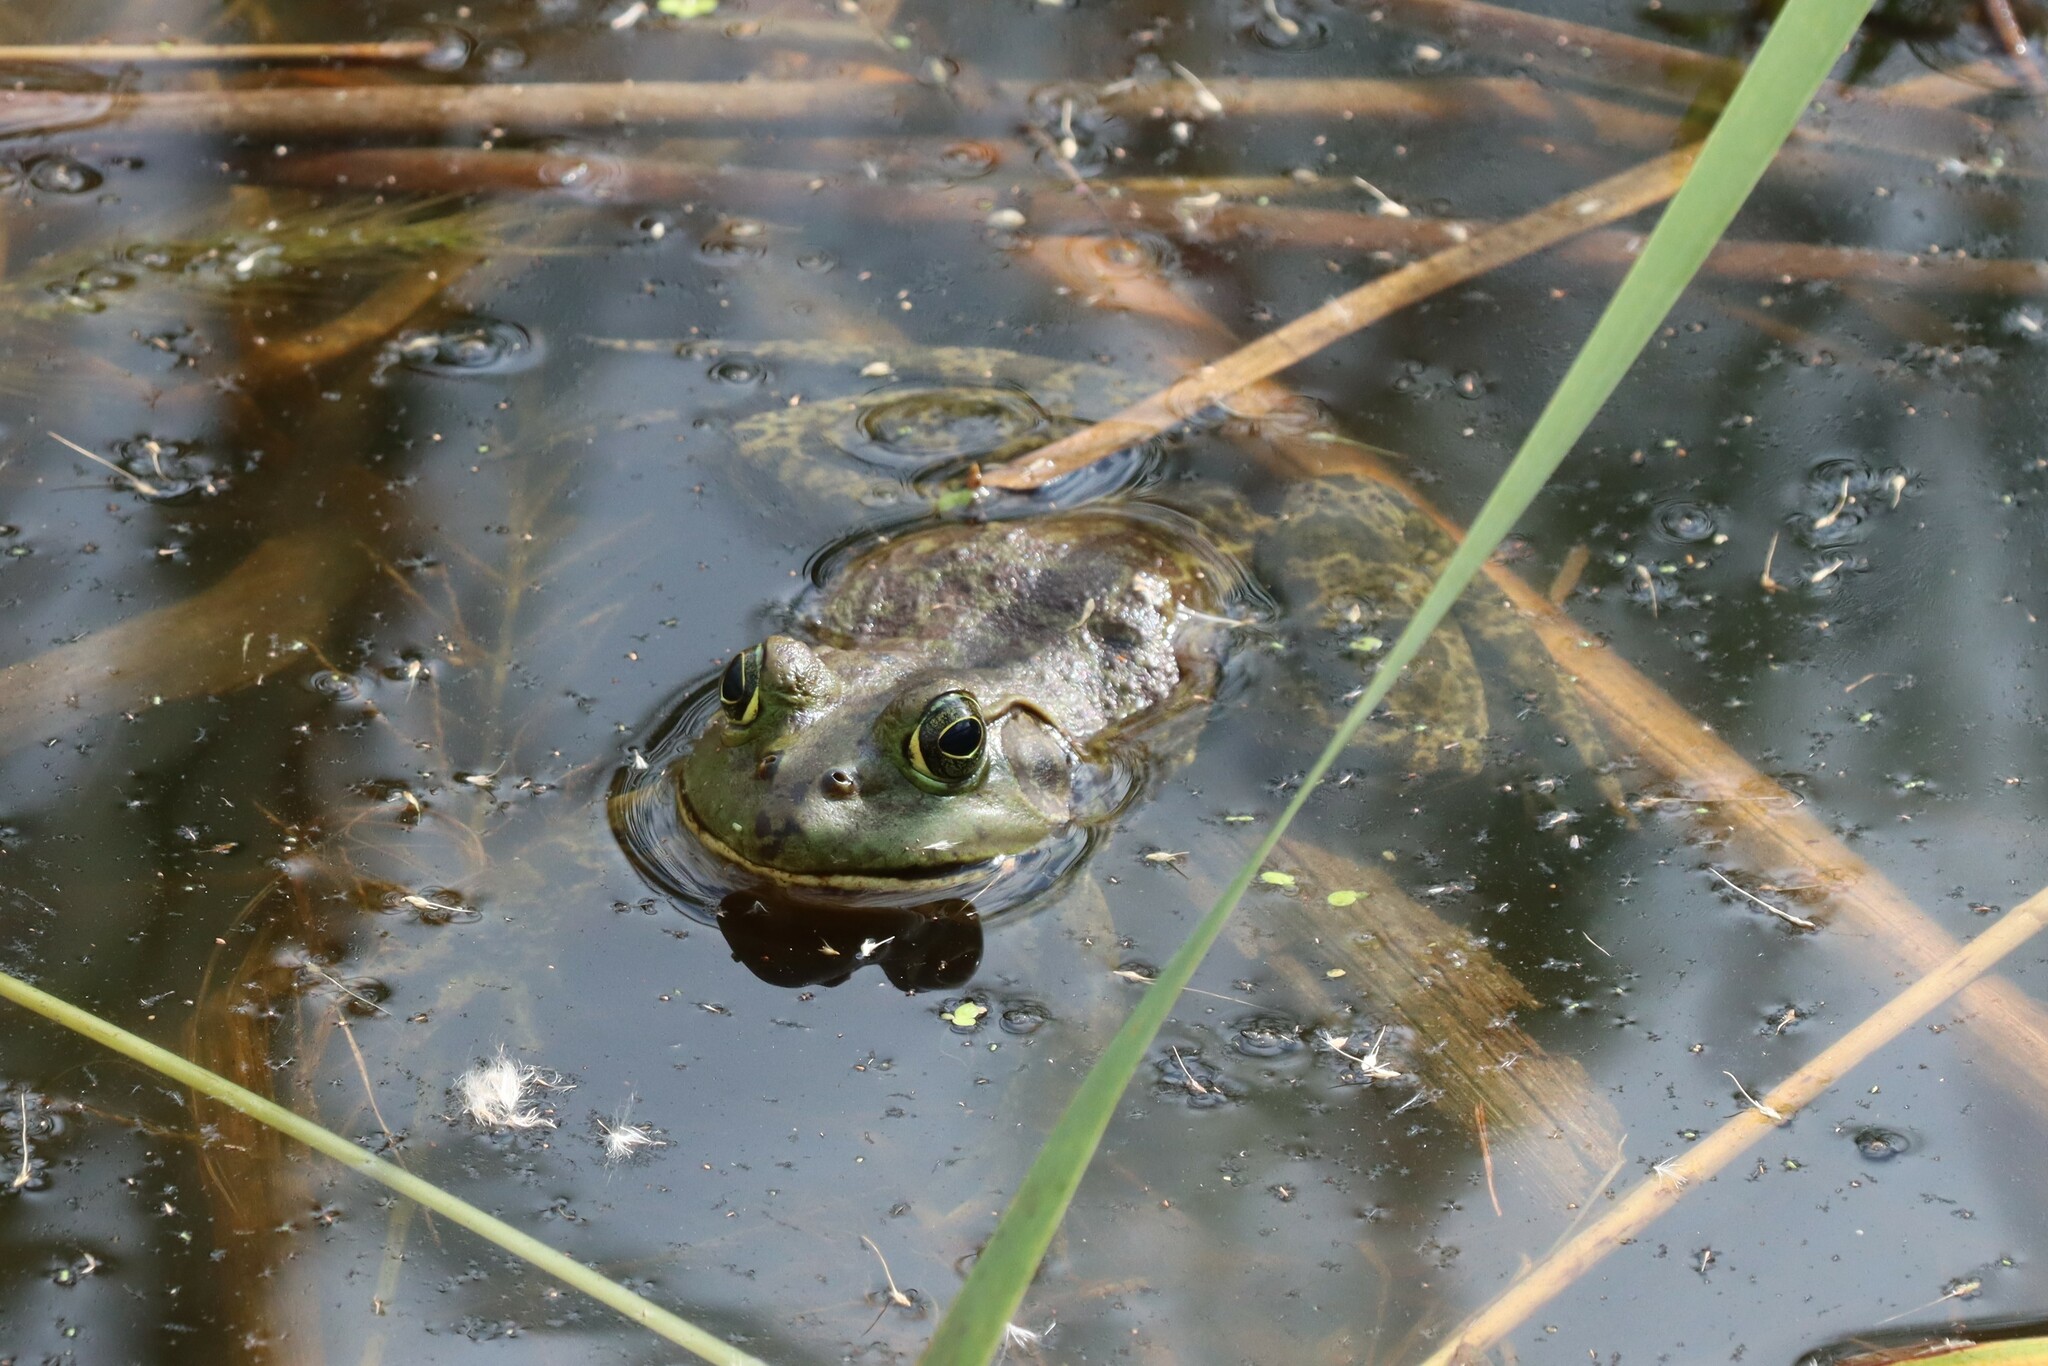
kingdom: Animalia
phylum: Chordata
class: Amphibia
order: Anura
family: Ranidae
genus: Lithobates
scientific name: Lithobates catesbeianus
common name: American bullfrog
